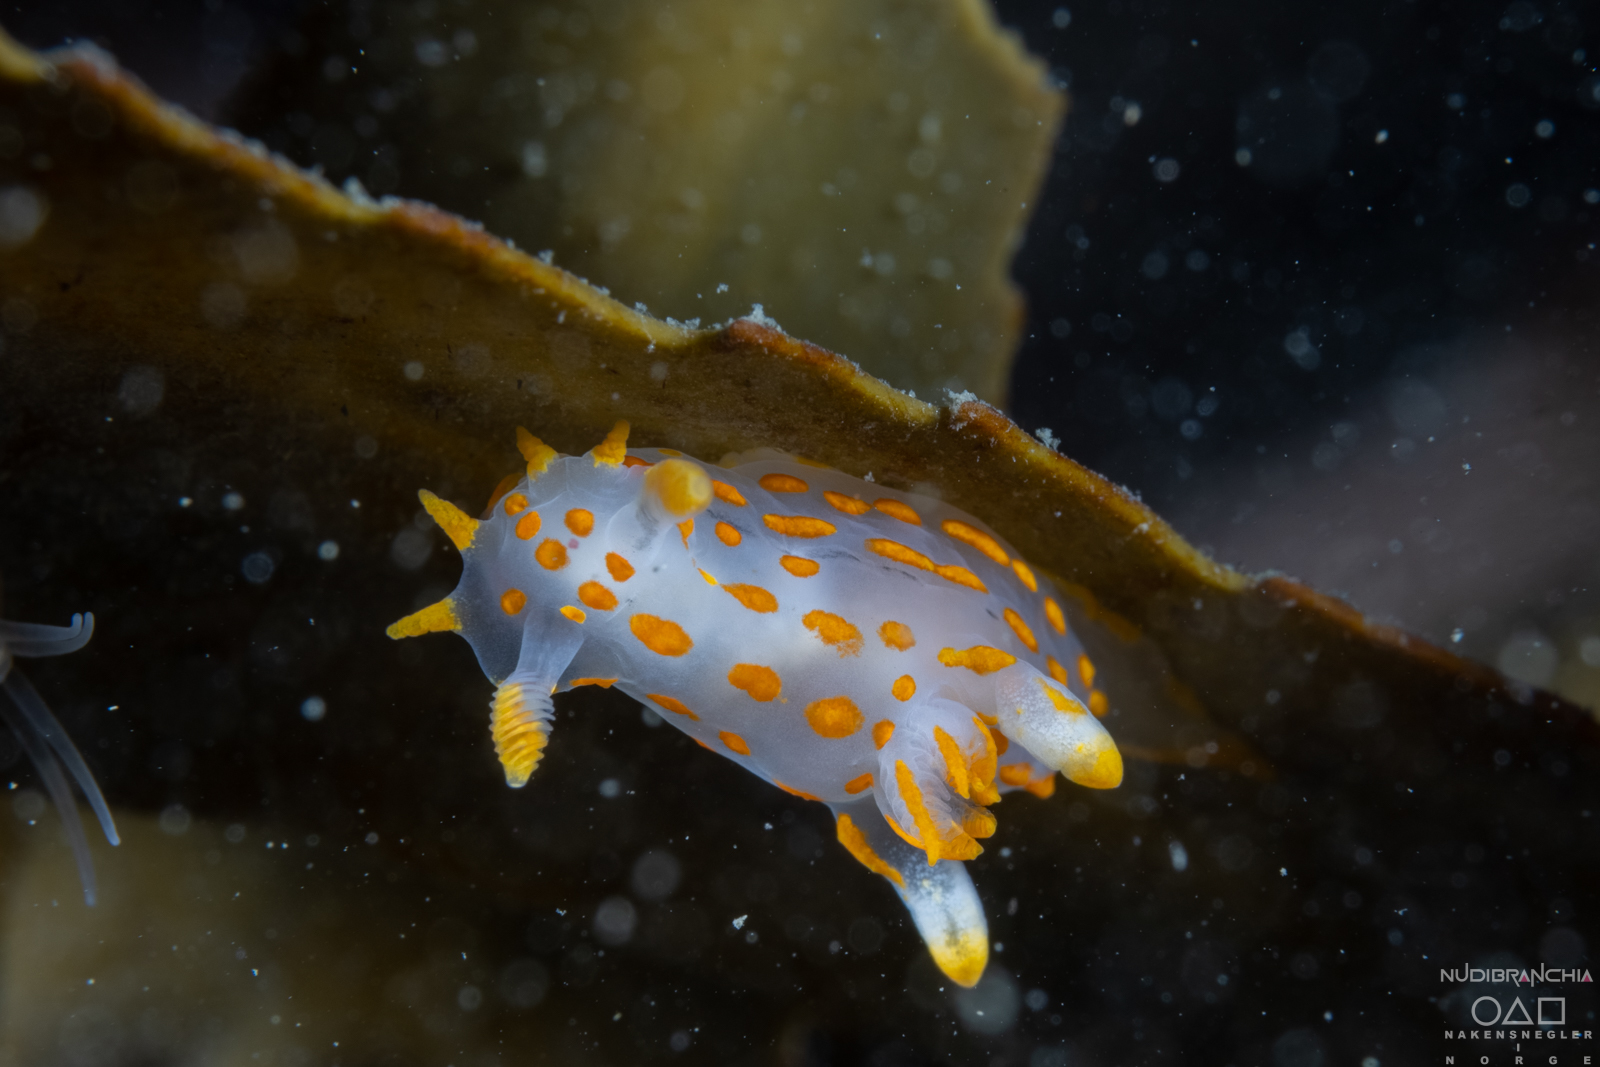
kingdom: Animalia
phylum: Mollusca
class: Gastropoda
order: Nudibranchia
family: Polyceridae
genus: Polycera
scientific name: Polycera quadrilineata
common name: Four-striped polycera
